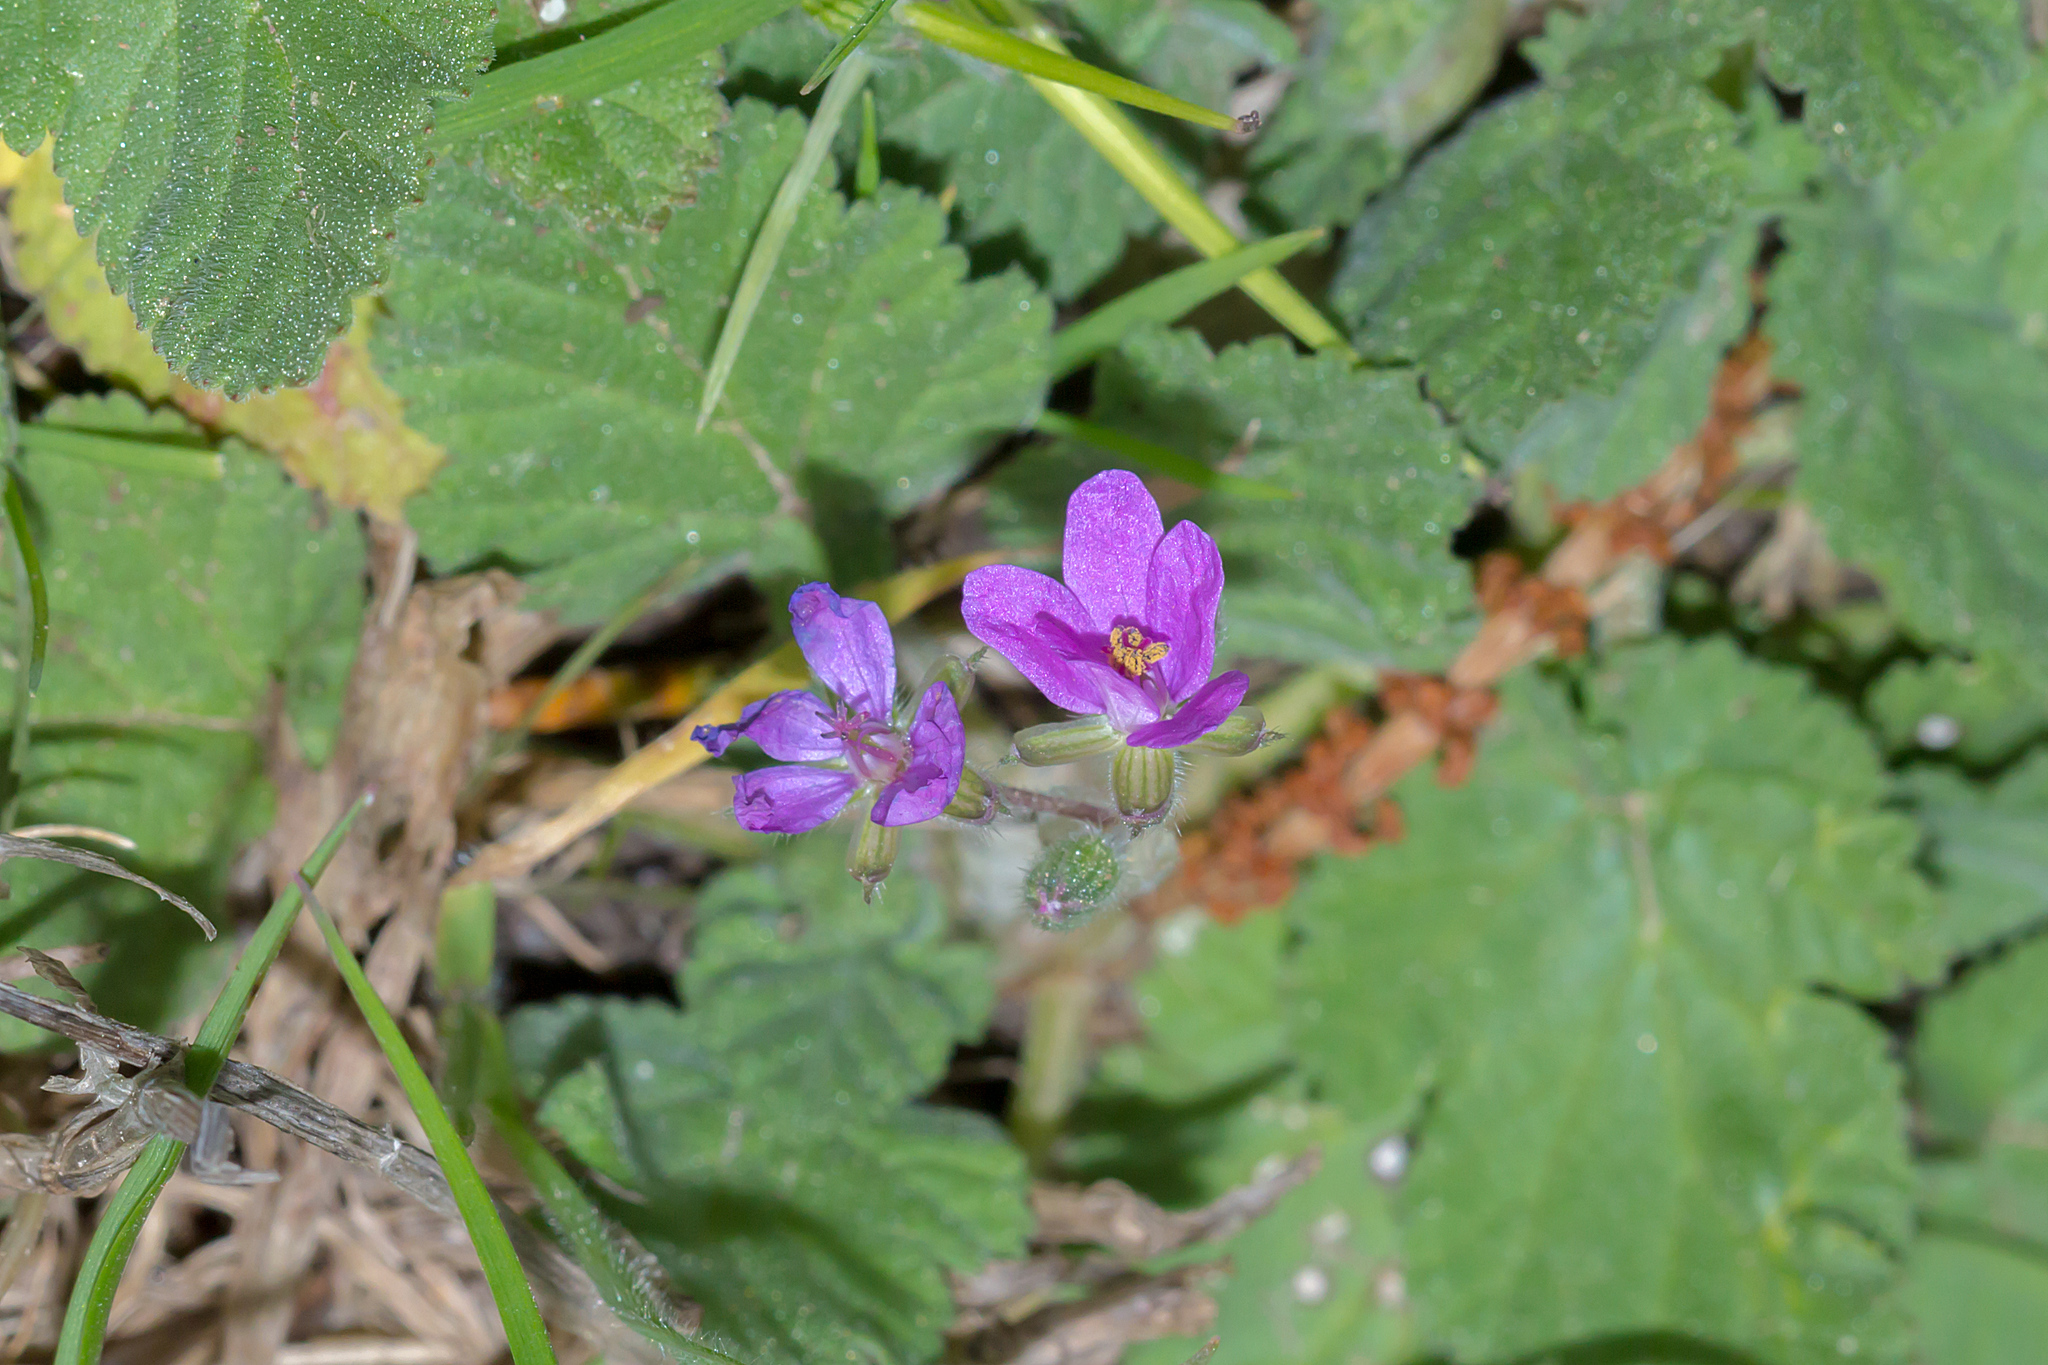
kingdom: Plantae
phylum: Tracheophyta
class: Magnoliopsida
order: Geraniales
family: Geraniaceae
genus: Erodium
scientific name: Erodium malacoides
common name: Soft stork's-bill
